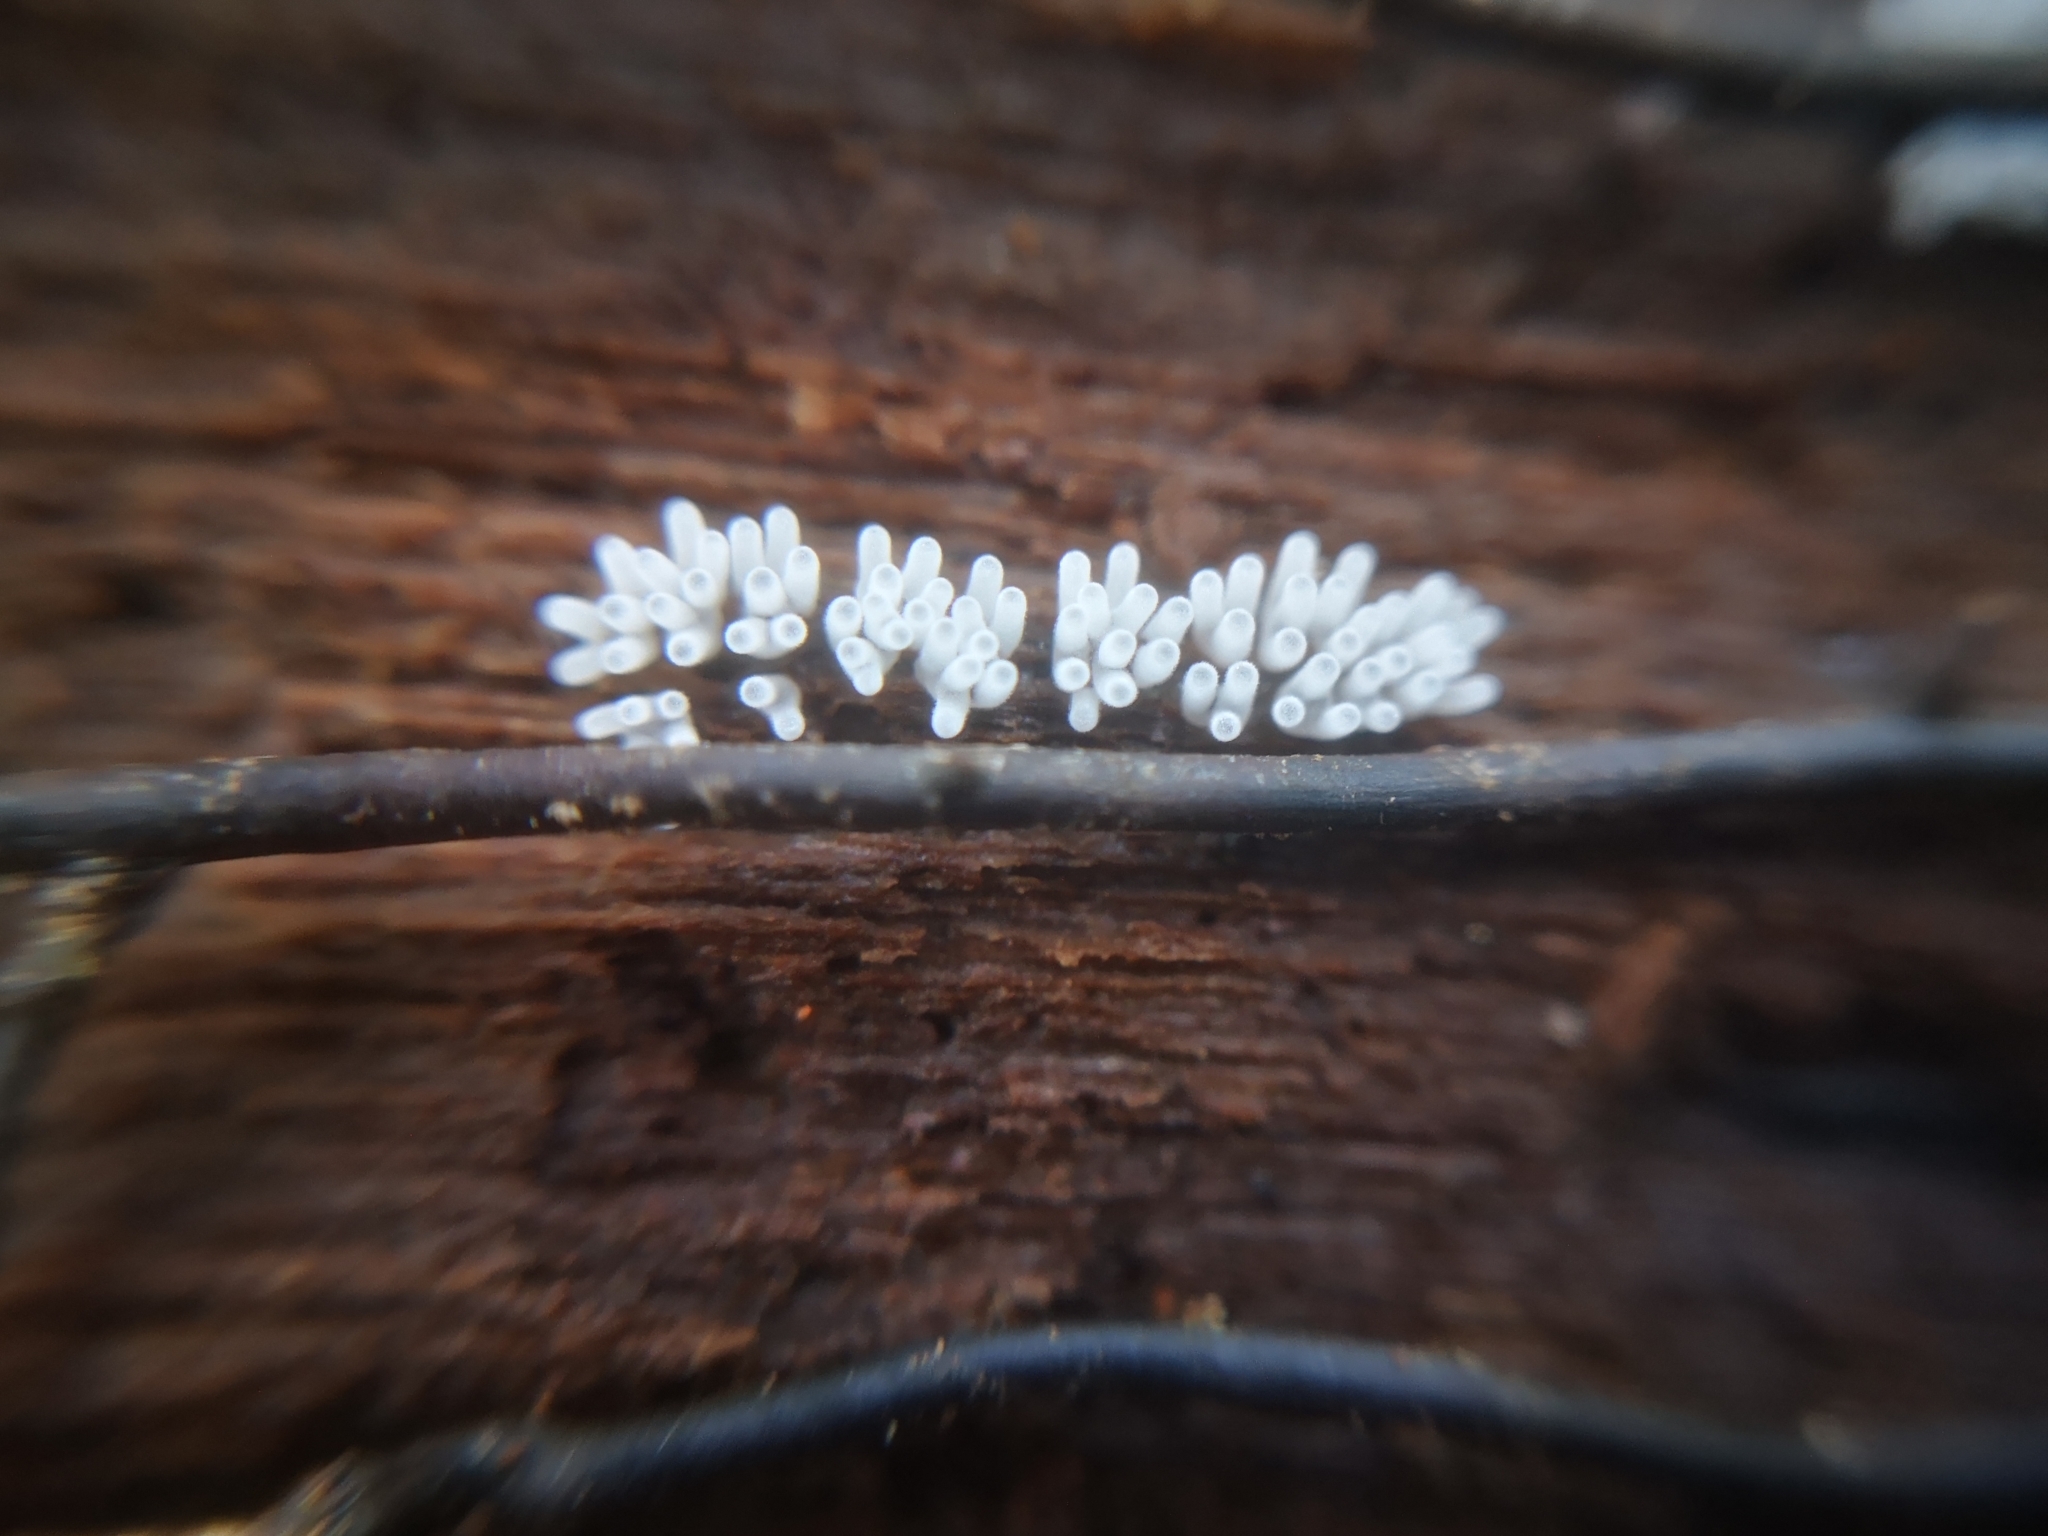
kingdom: Protozoa
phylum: Mycetozoa
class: Protosteliomycetes
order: Ceratiomyxales
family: Ceratiomyxaceae
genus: Ceratiomyxa
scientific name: Ceratiomyxa fruticulosa
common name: Honeycomb coral slime mold
